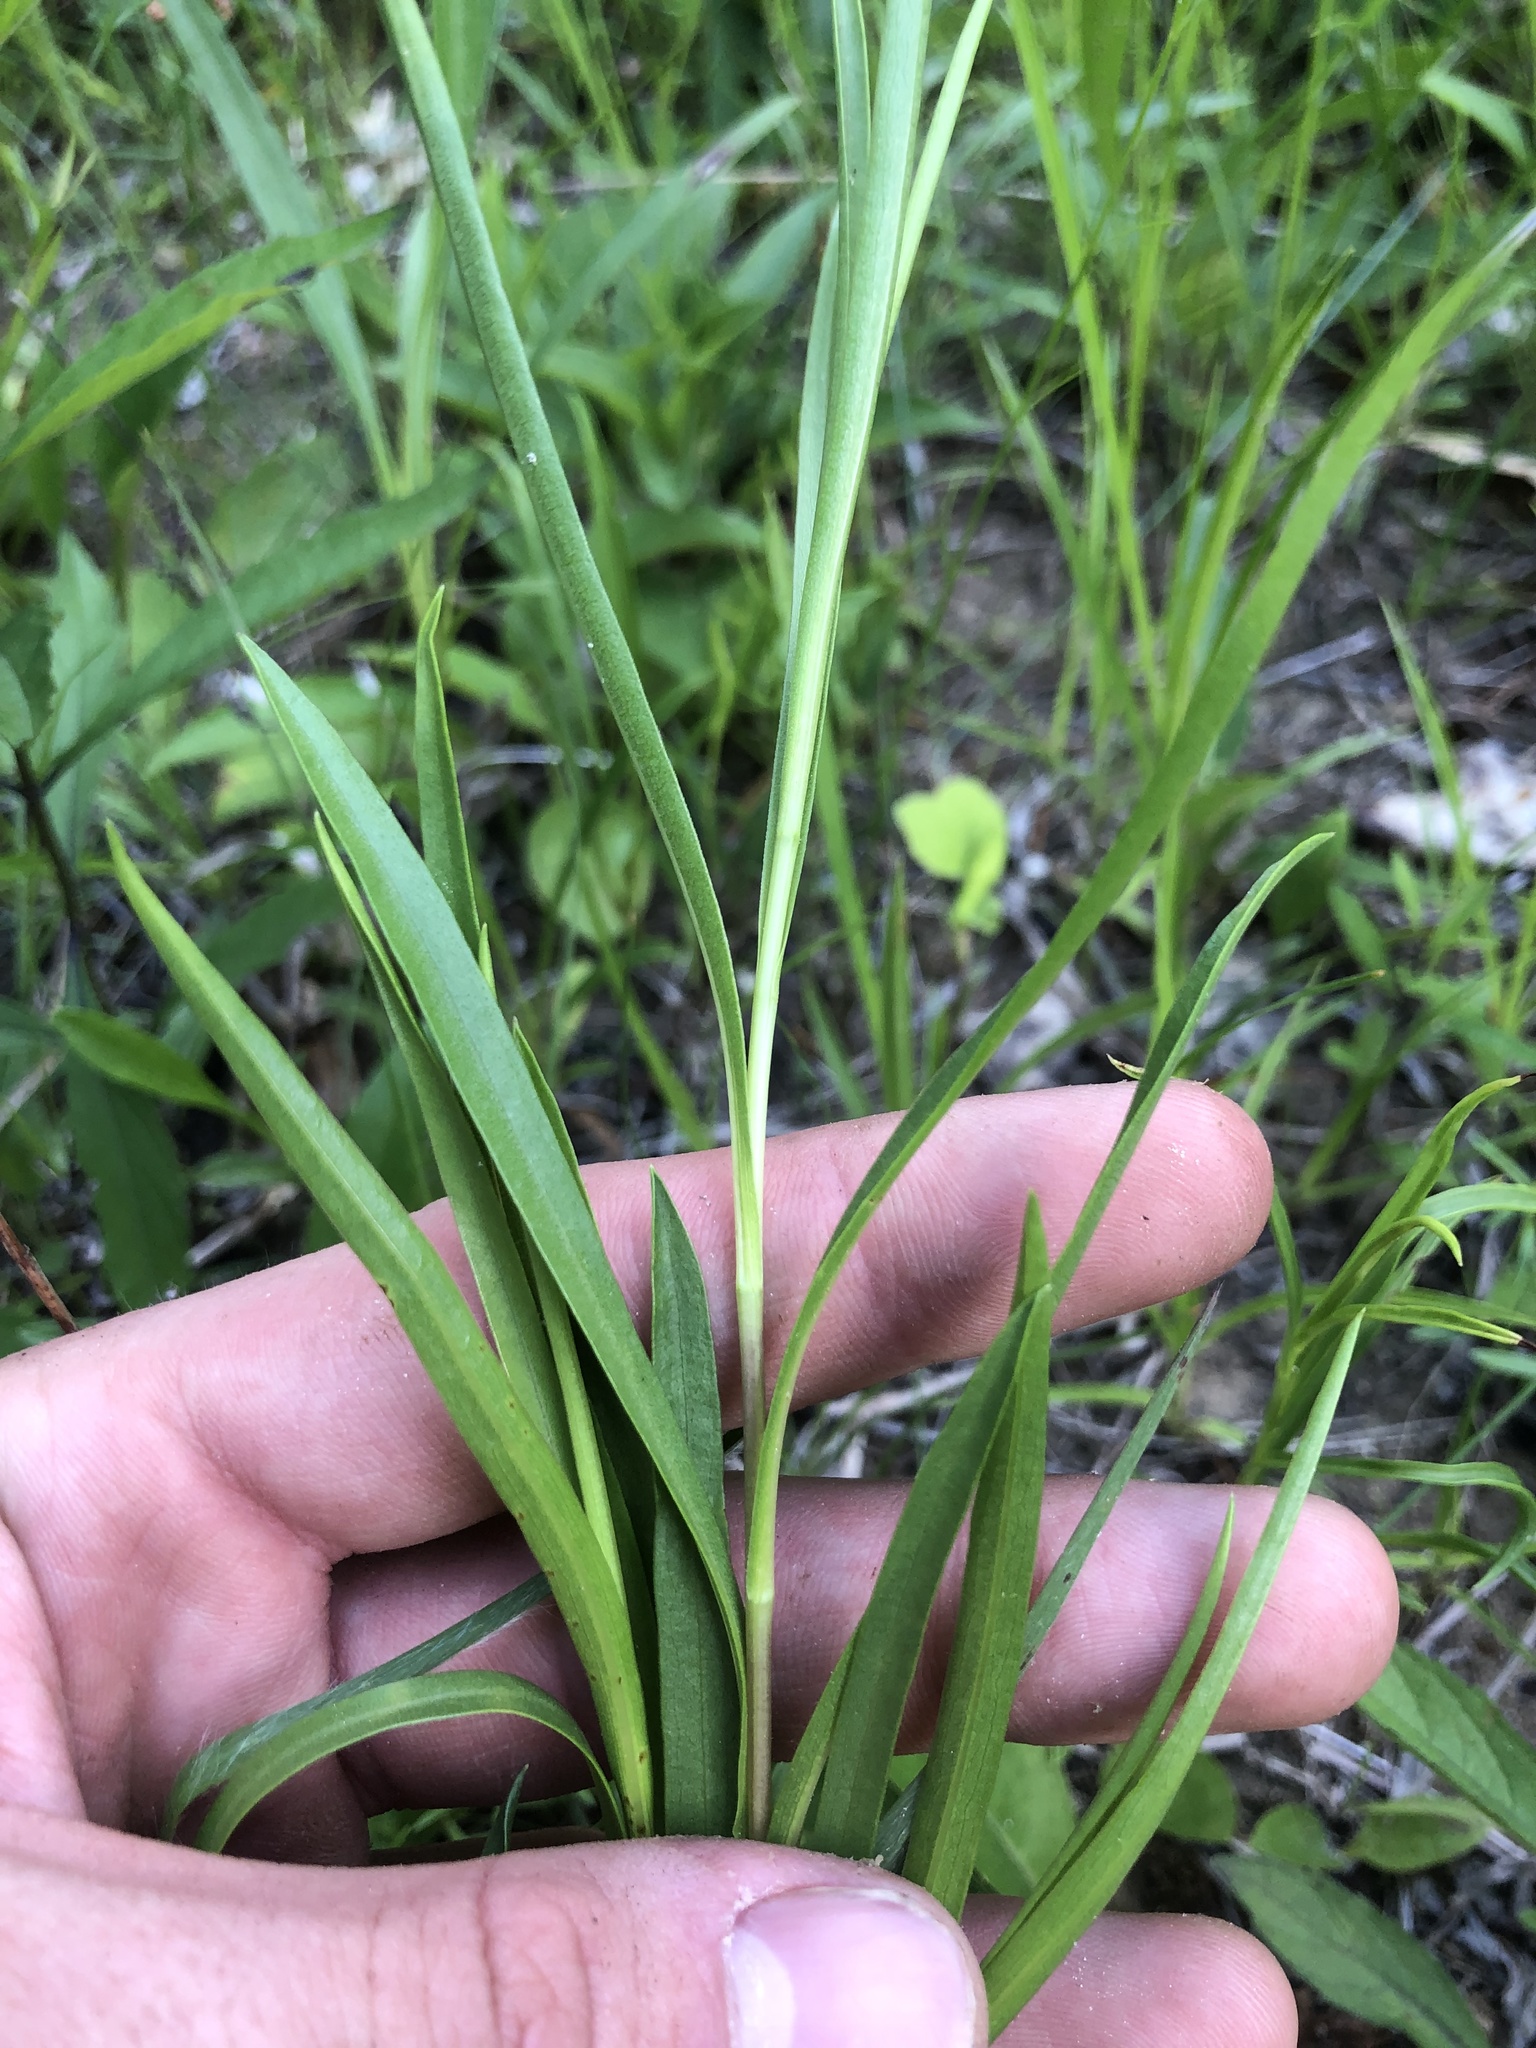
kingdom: Plantae
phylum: Tracheophyta
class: Magnoliopsida
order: Asterales
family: Asteraceae
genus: Eurybia
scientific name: Eurybia hemispherica
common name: Showy aster
